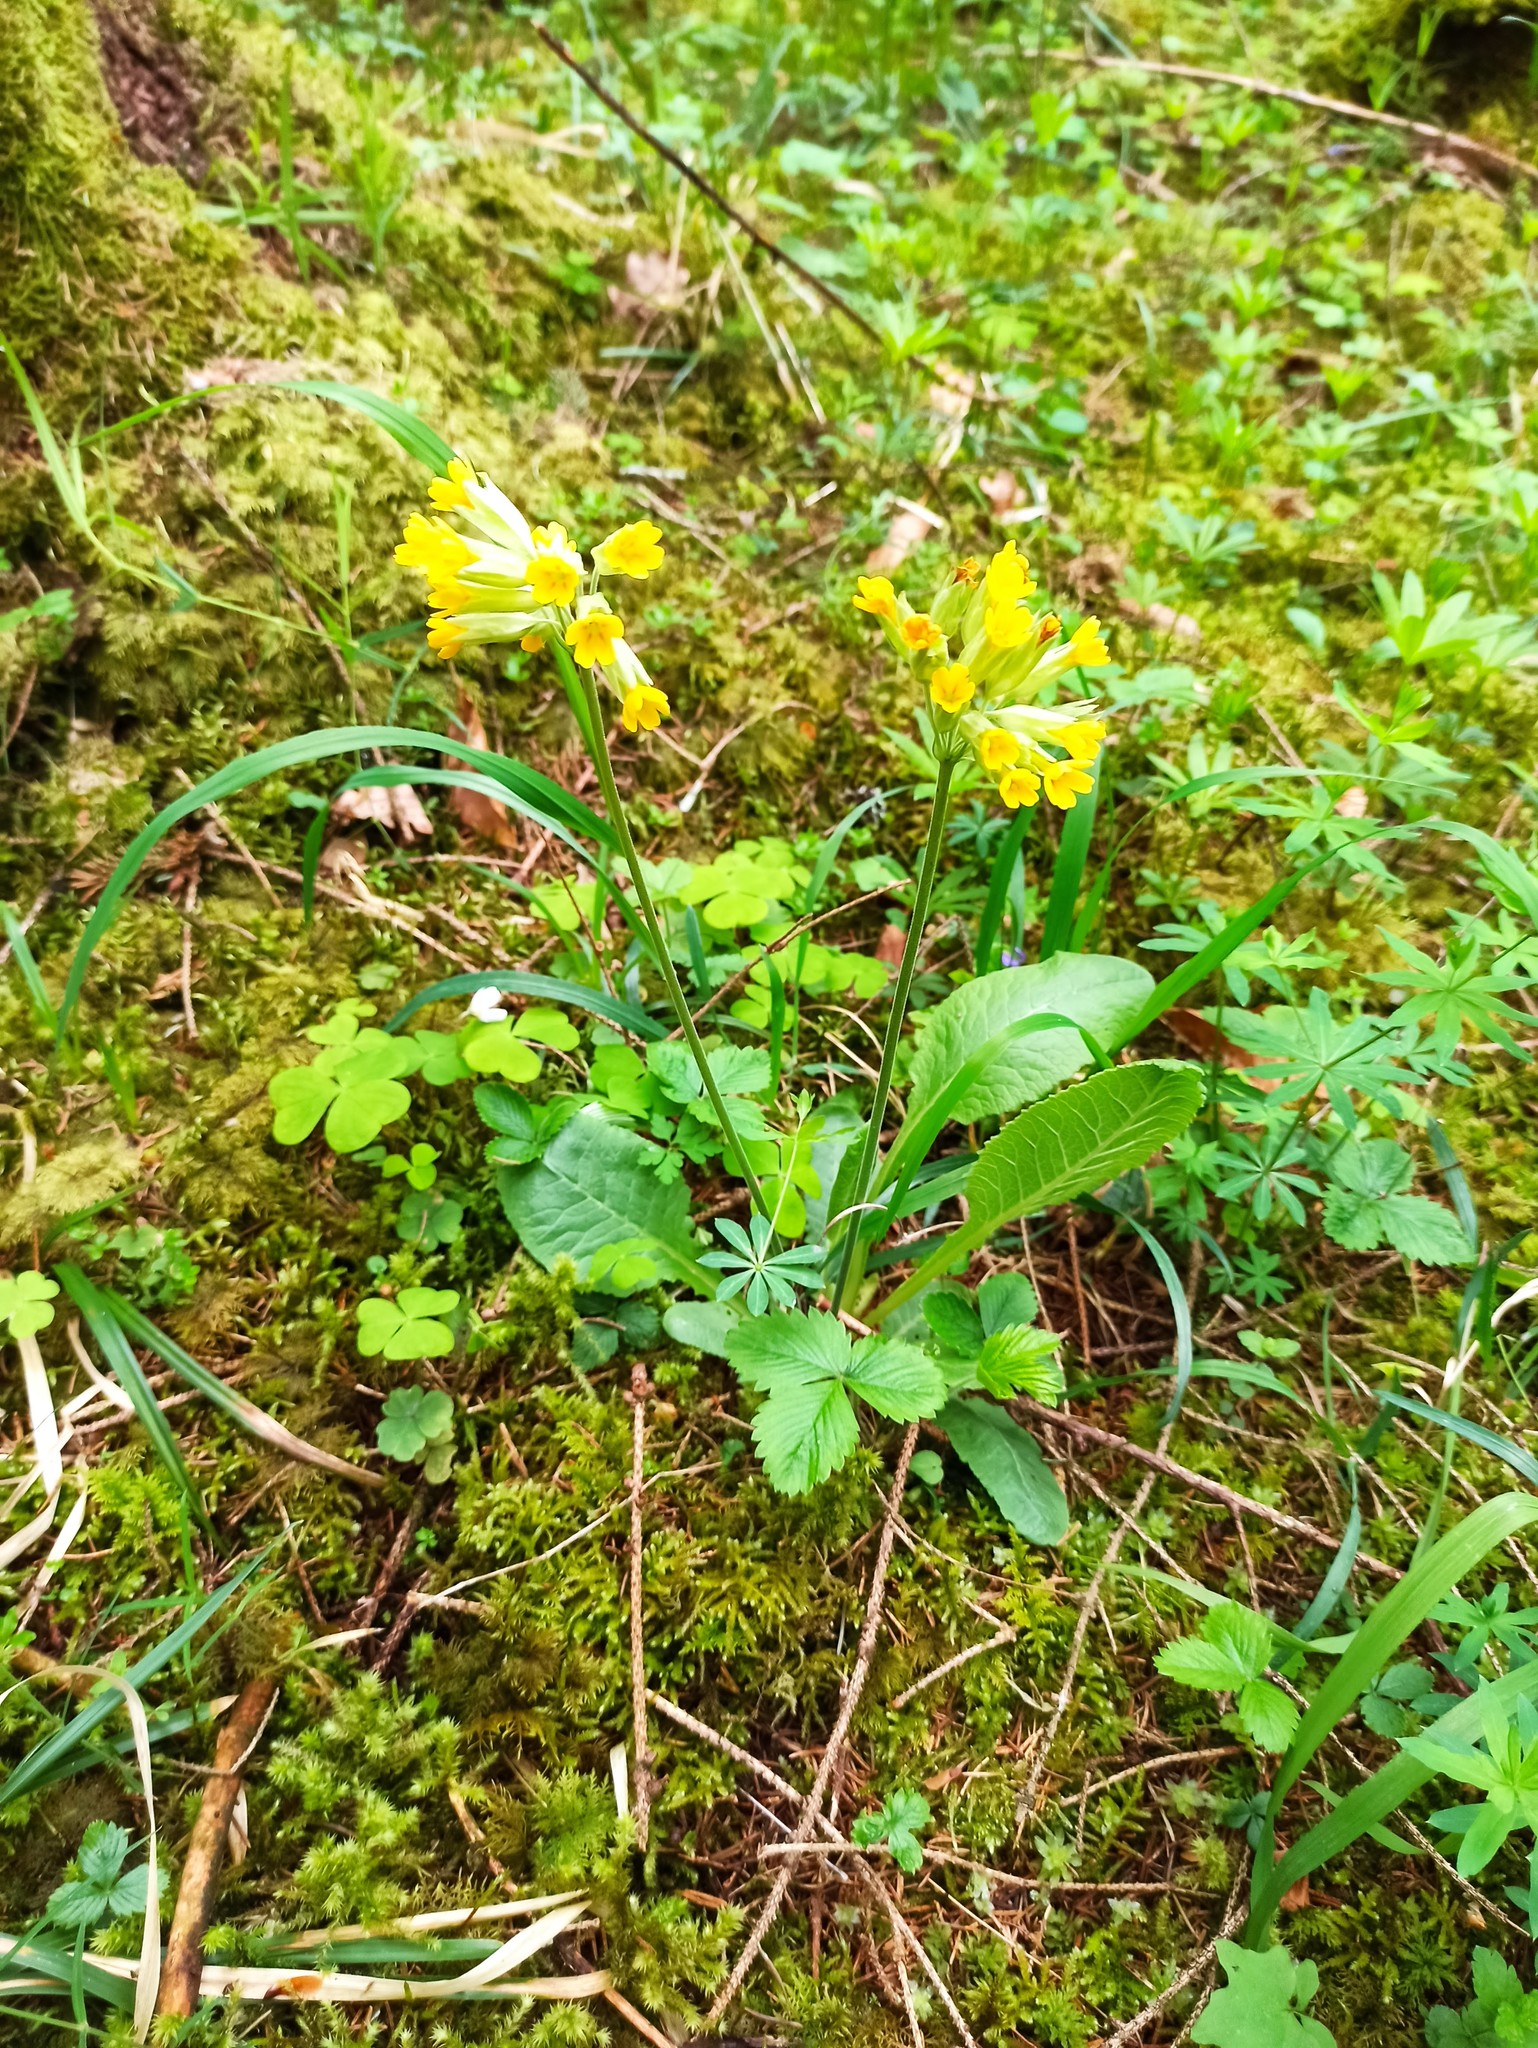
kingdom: Plantae
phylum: Tracheophyta
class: Magnoliopsida
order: Ericales
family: Primulaceae
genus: Primula
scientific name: Primula veris
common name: Cowslip
